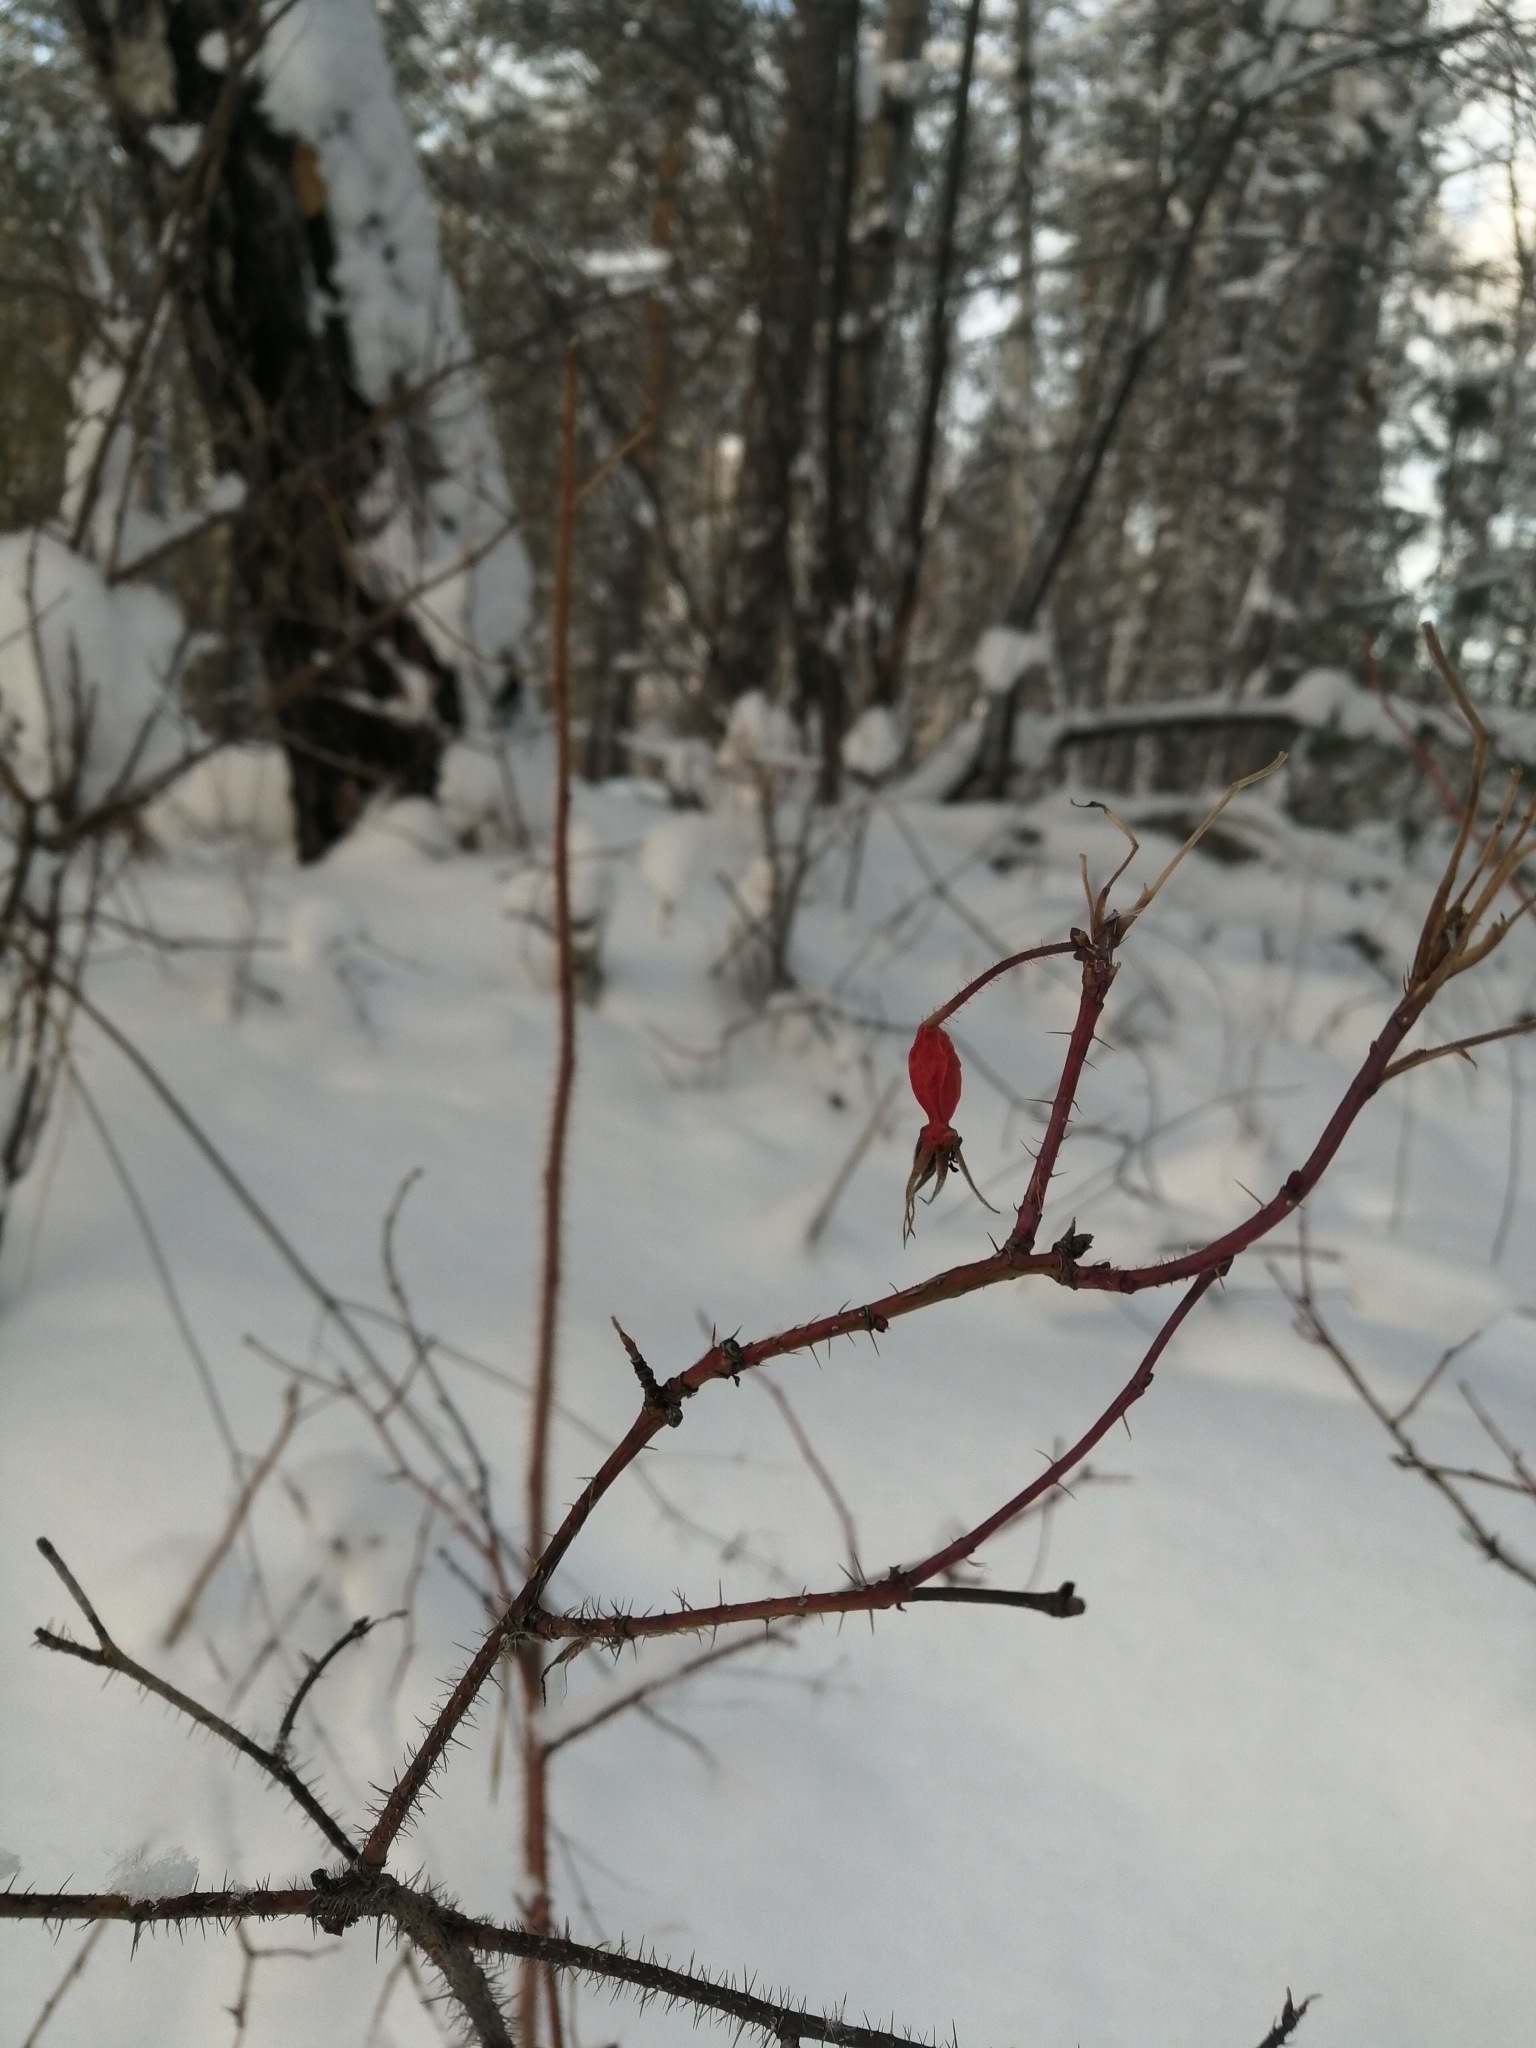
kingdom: Plantae
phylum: Tracheophyta
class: Magnoliopsida
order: Rosales
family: Rosaceae
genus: Rosa
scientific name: Rosa acicularis
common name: Prickly rose
